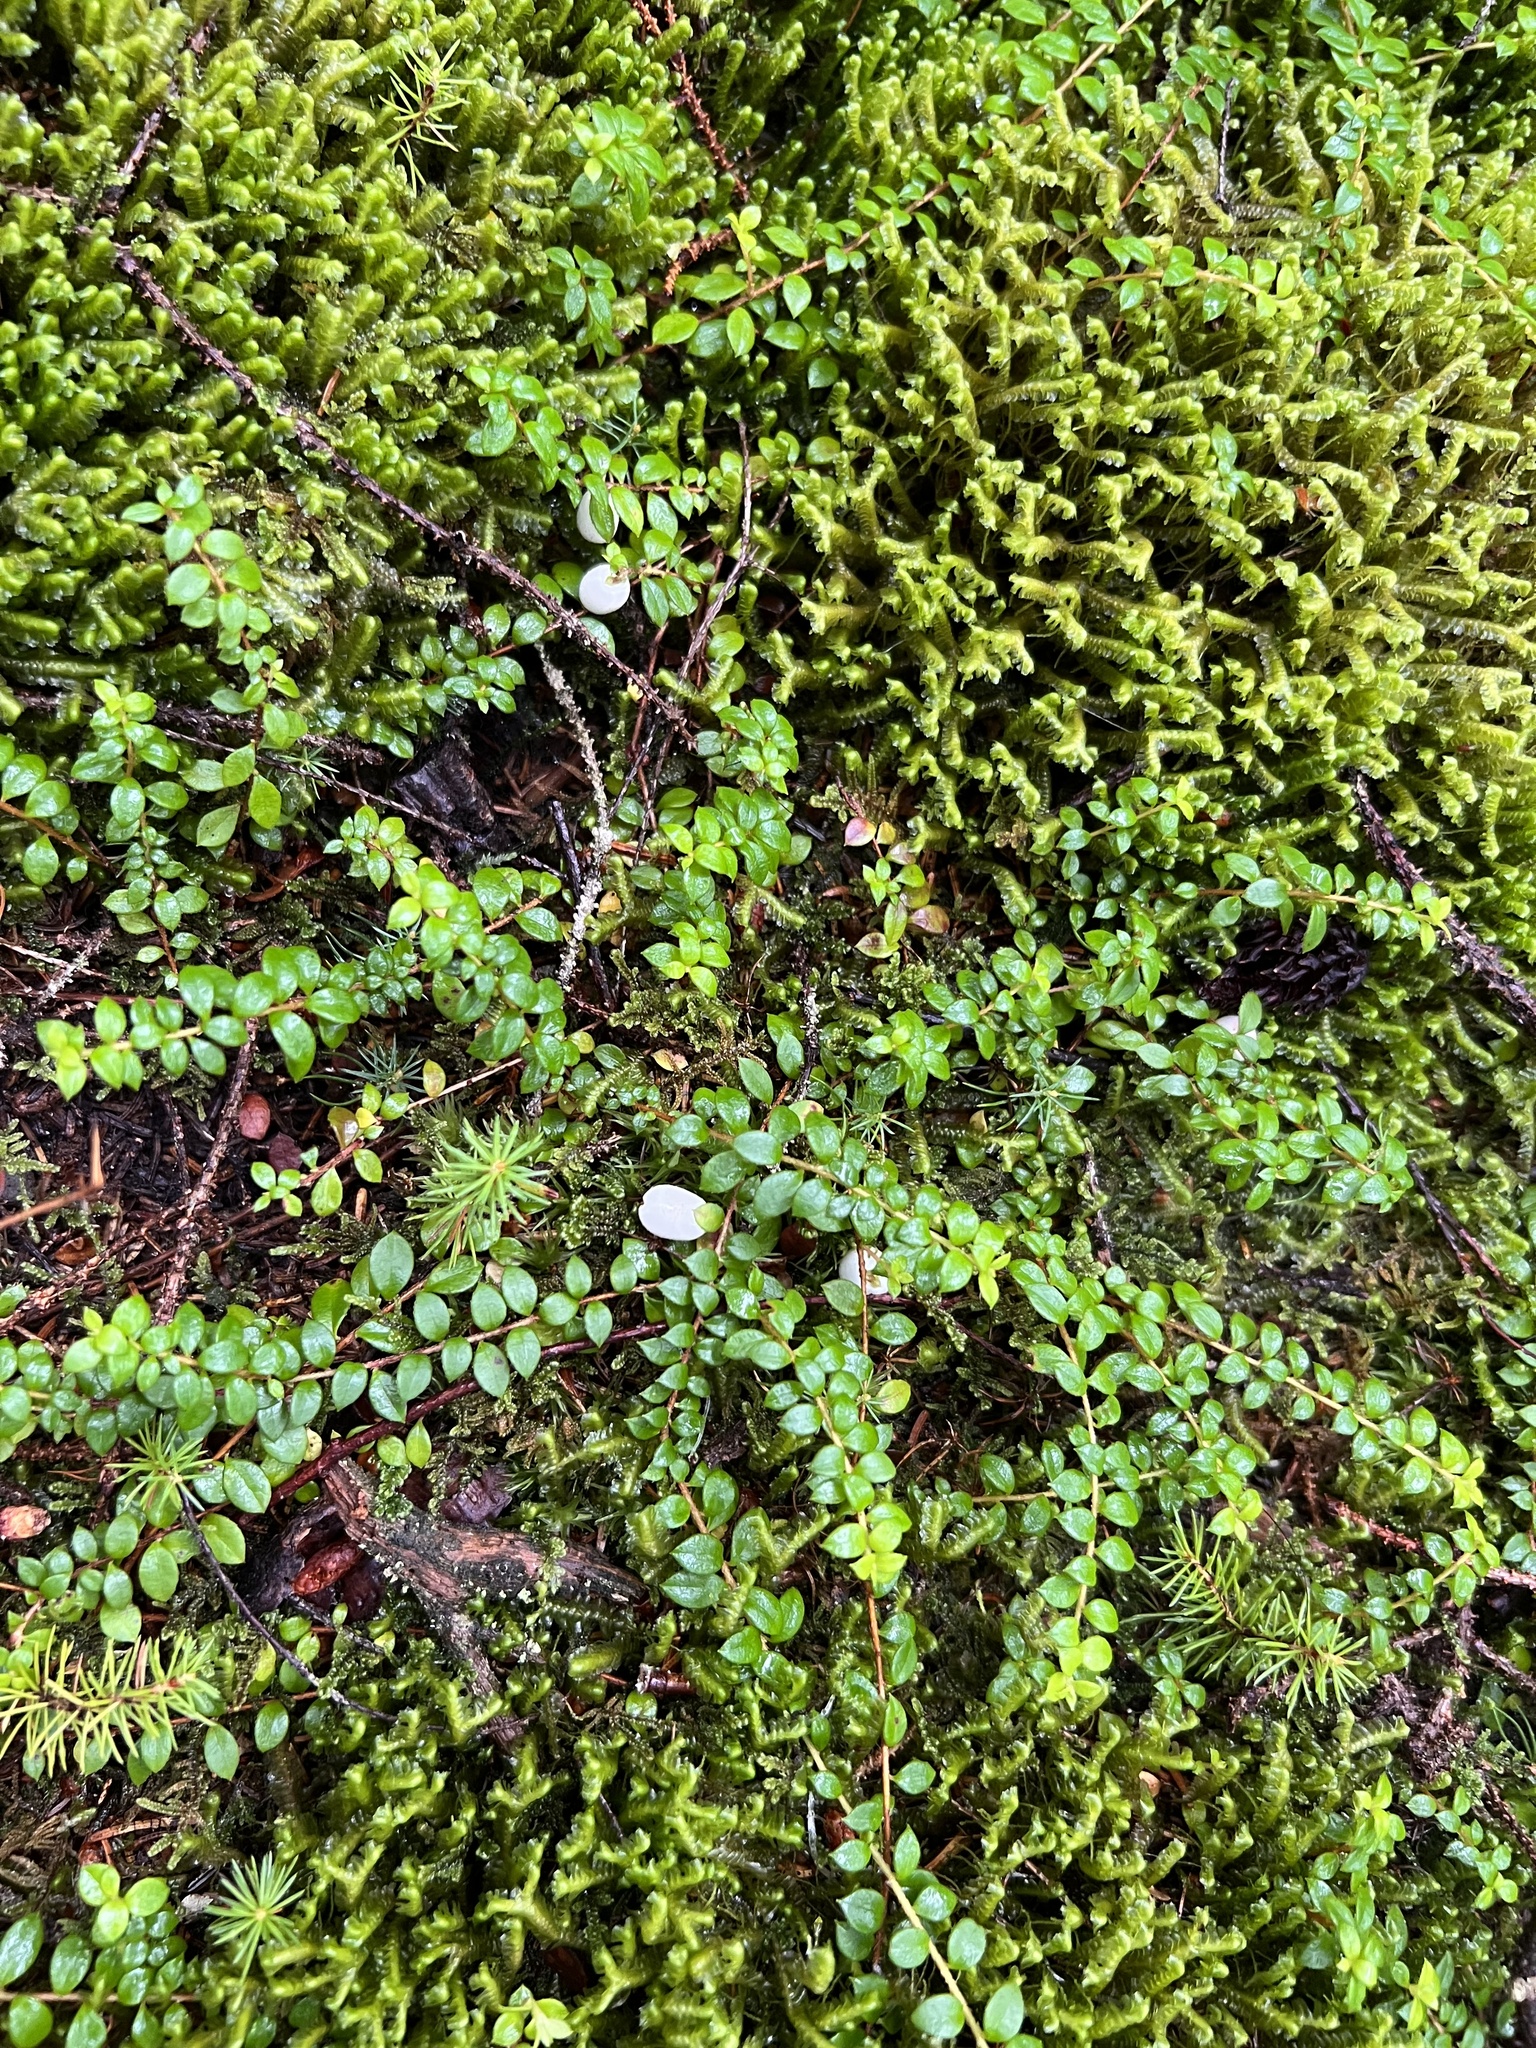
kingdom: Plantae
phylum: Tracheophyta
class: Magnoliopsida
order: Ericales
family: Ericaceae
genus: Gaultheria
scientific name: Gaultheria hispidula
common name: Cancer wintergreen
